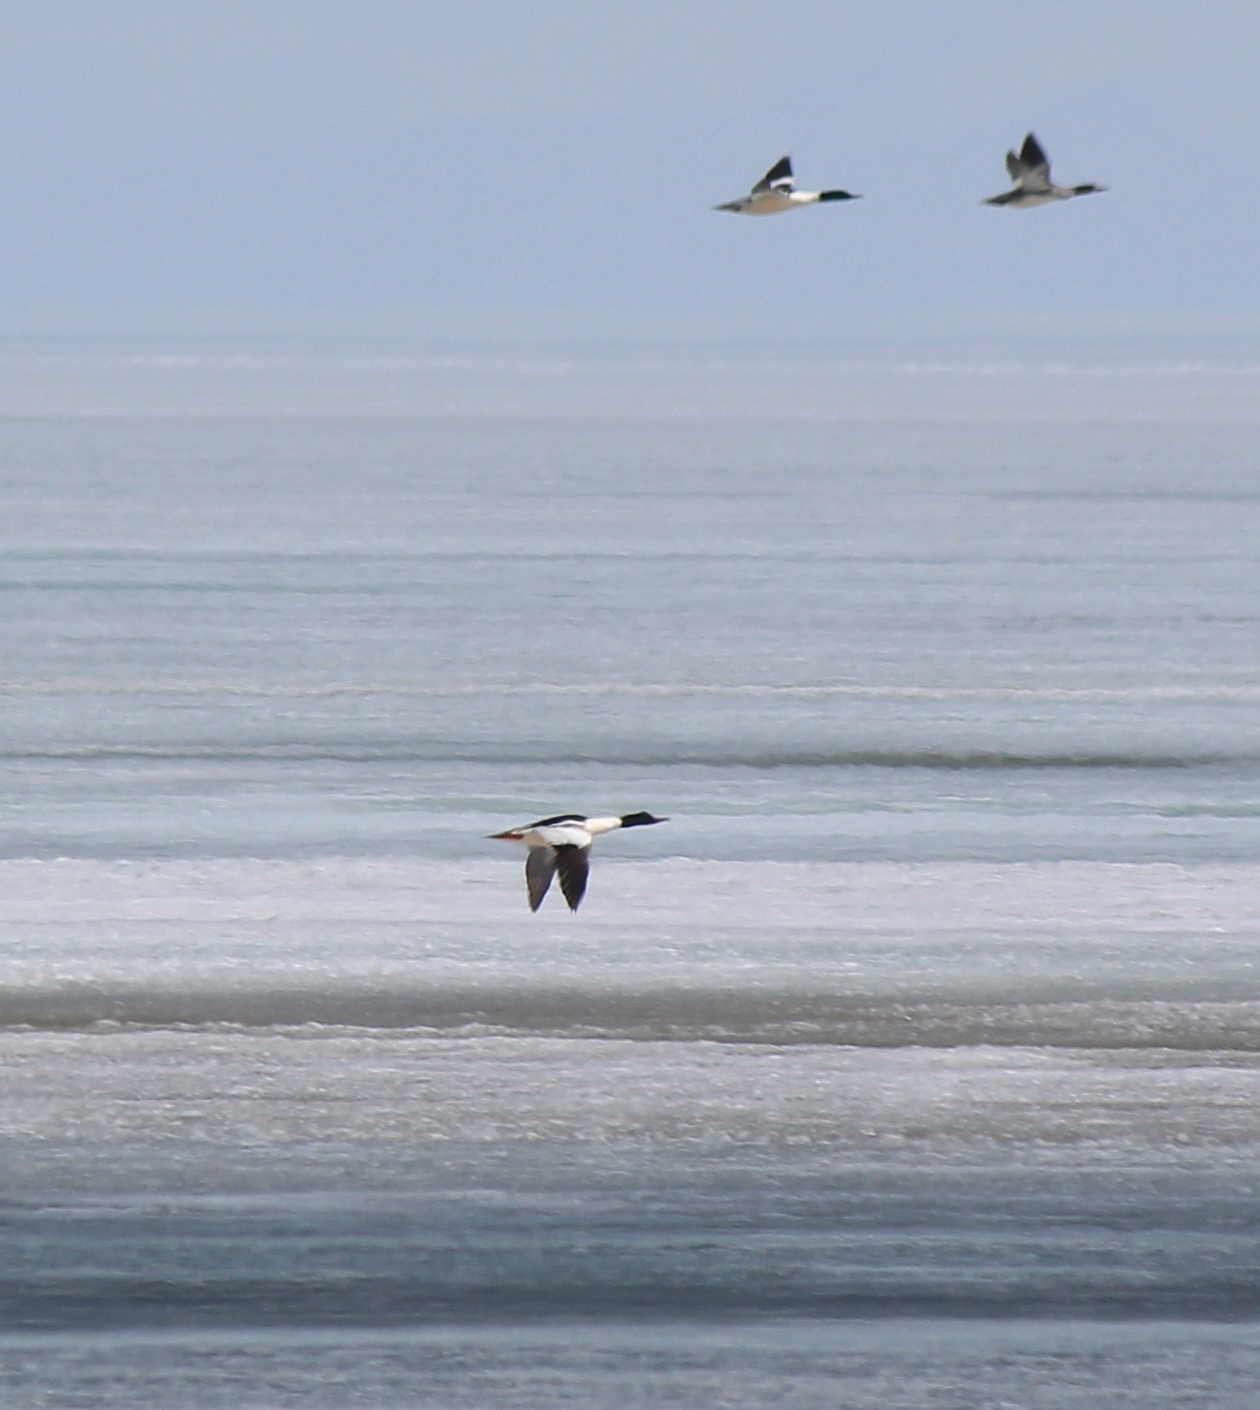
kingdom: Animalia
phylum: Chordata
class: Aves
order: Anseriformes
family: Anatidae
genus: Mergus
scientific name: Mergus merganser
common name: Common merganser
